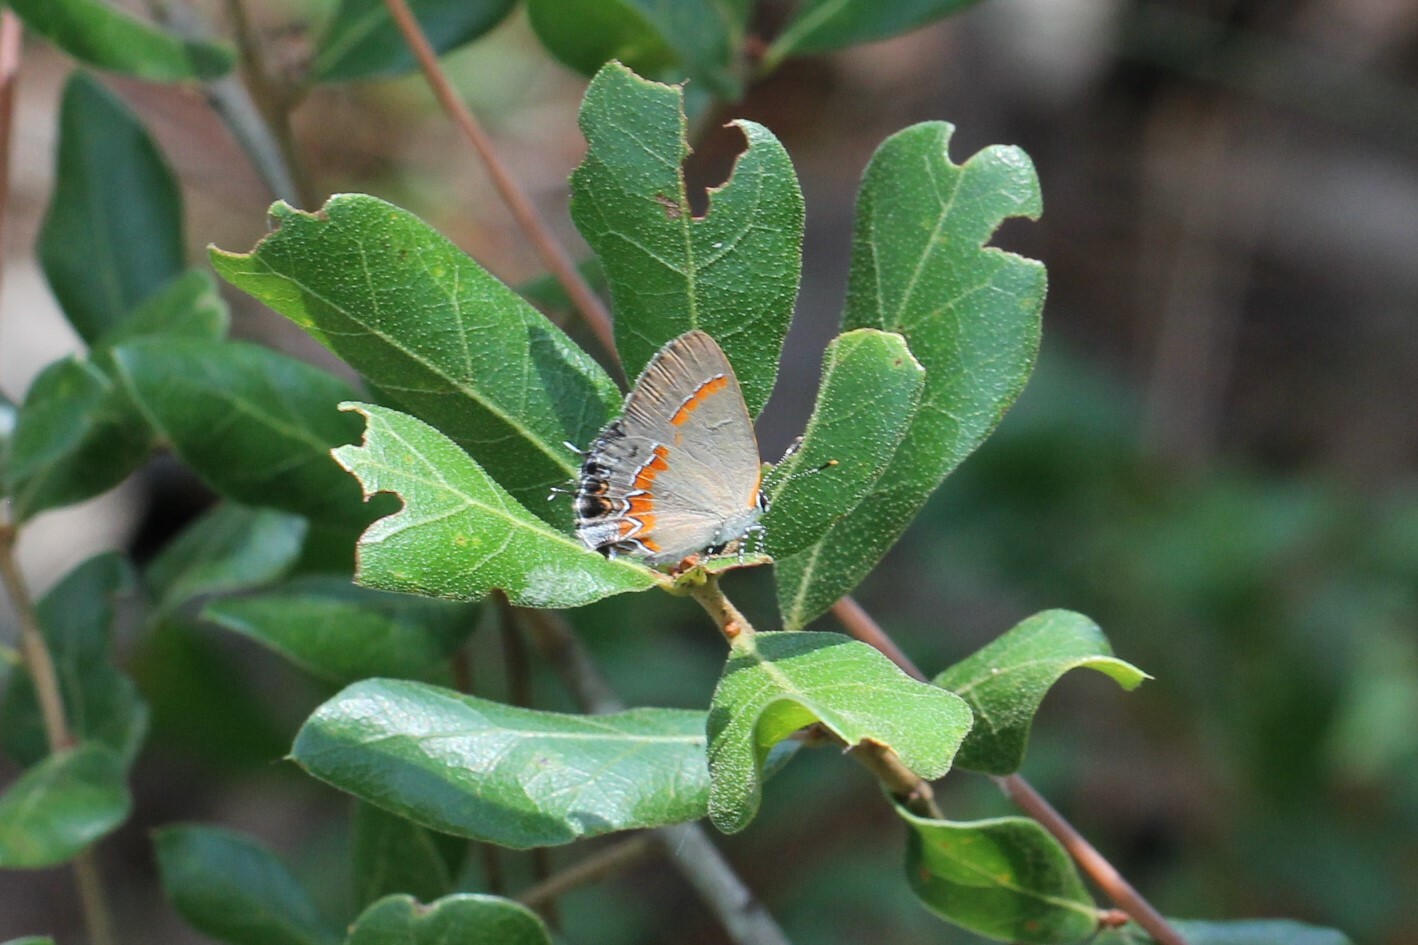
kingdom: Animalia
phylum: Arthropoda
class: Insecta
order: Lepidoptera
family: Lycaenidae
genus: Calycopis
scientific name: Calycopis cecrops
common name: Red-banded hairstreak
